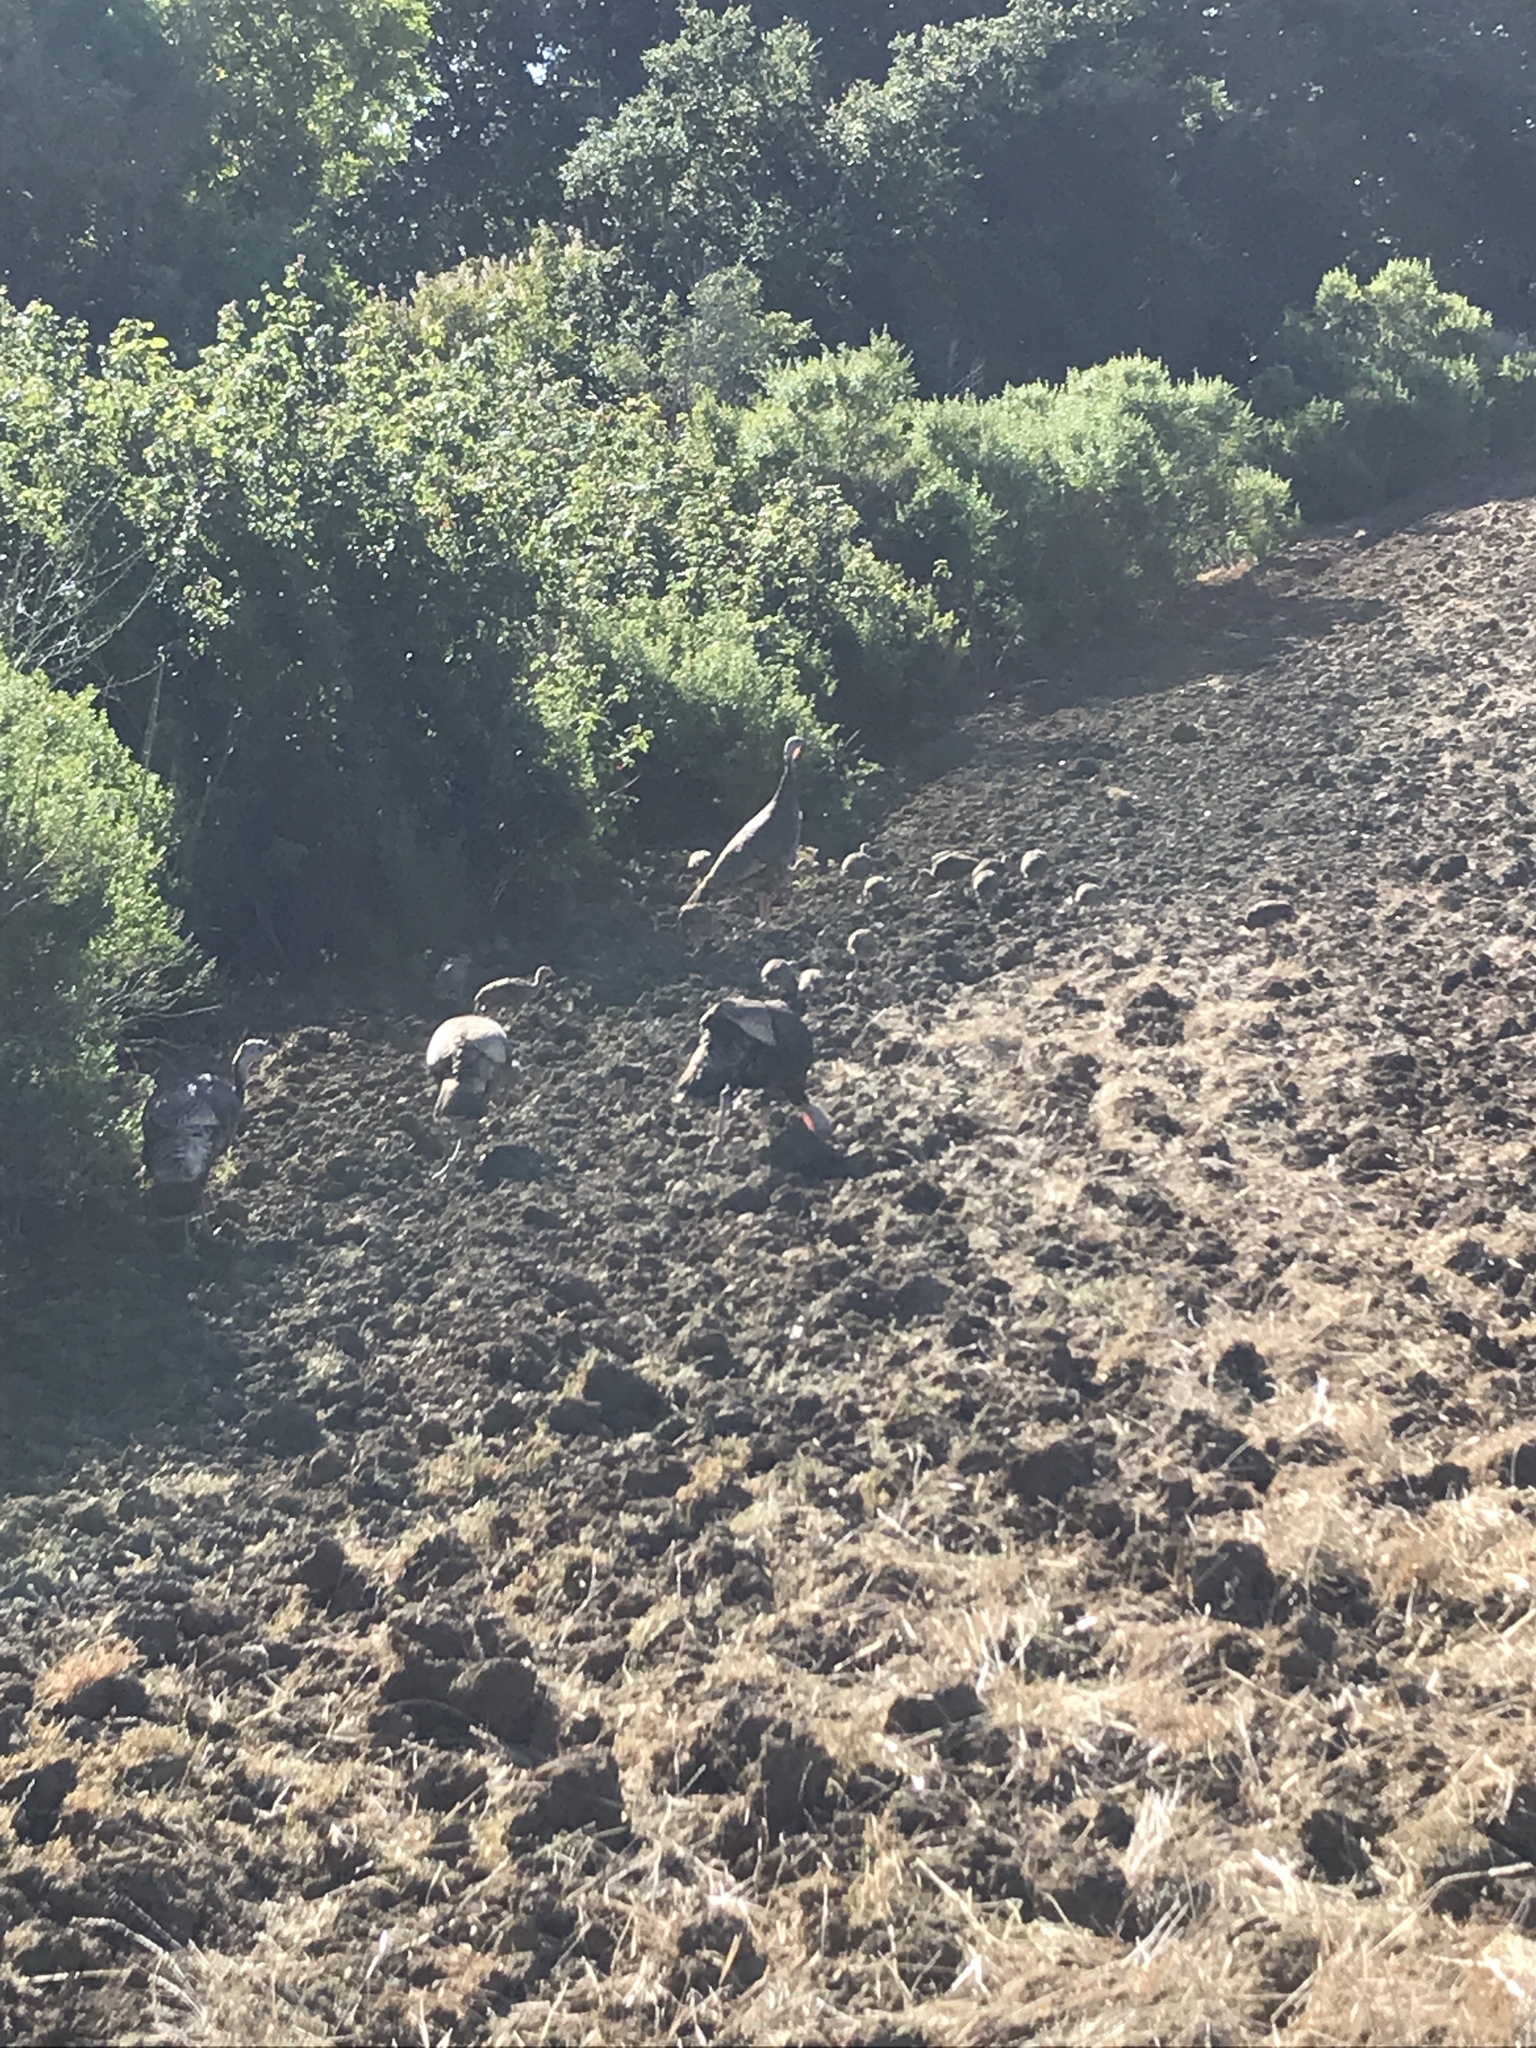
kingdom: Animalia
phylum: Chordata
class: Aves
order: Galliformes
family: Phasianidae
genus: Meleagris
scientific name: Meleagris gallopavo
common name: Wild turkey
